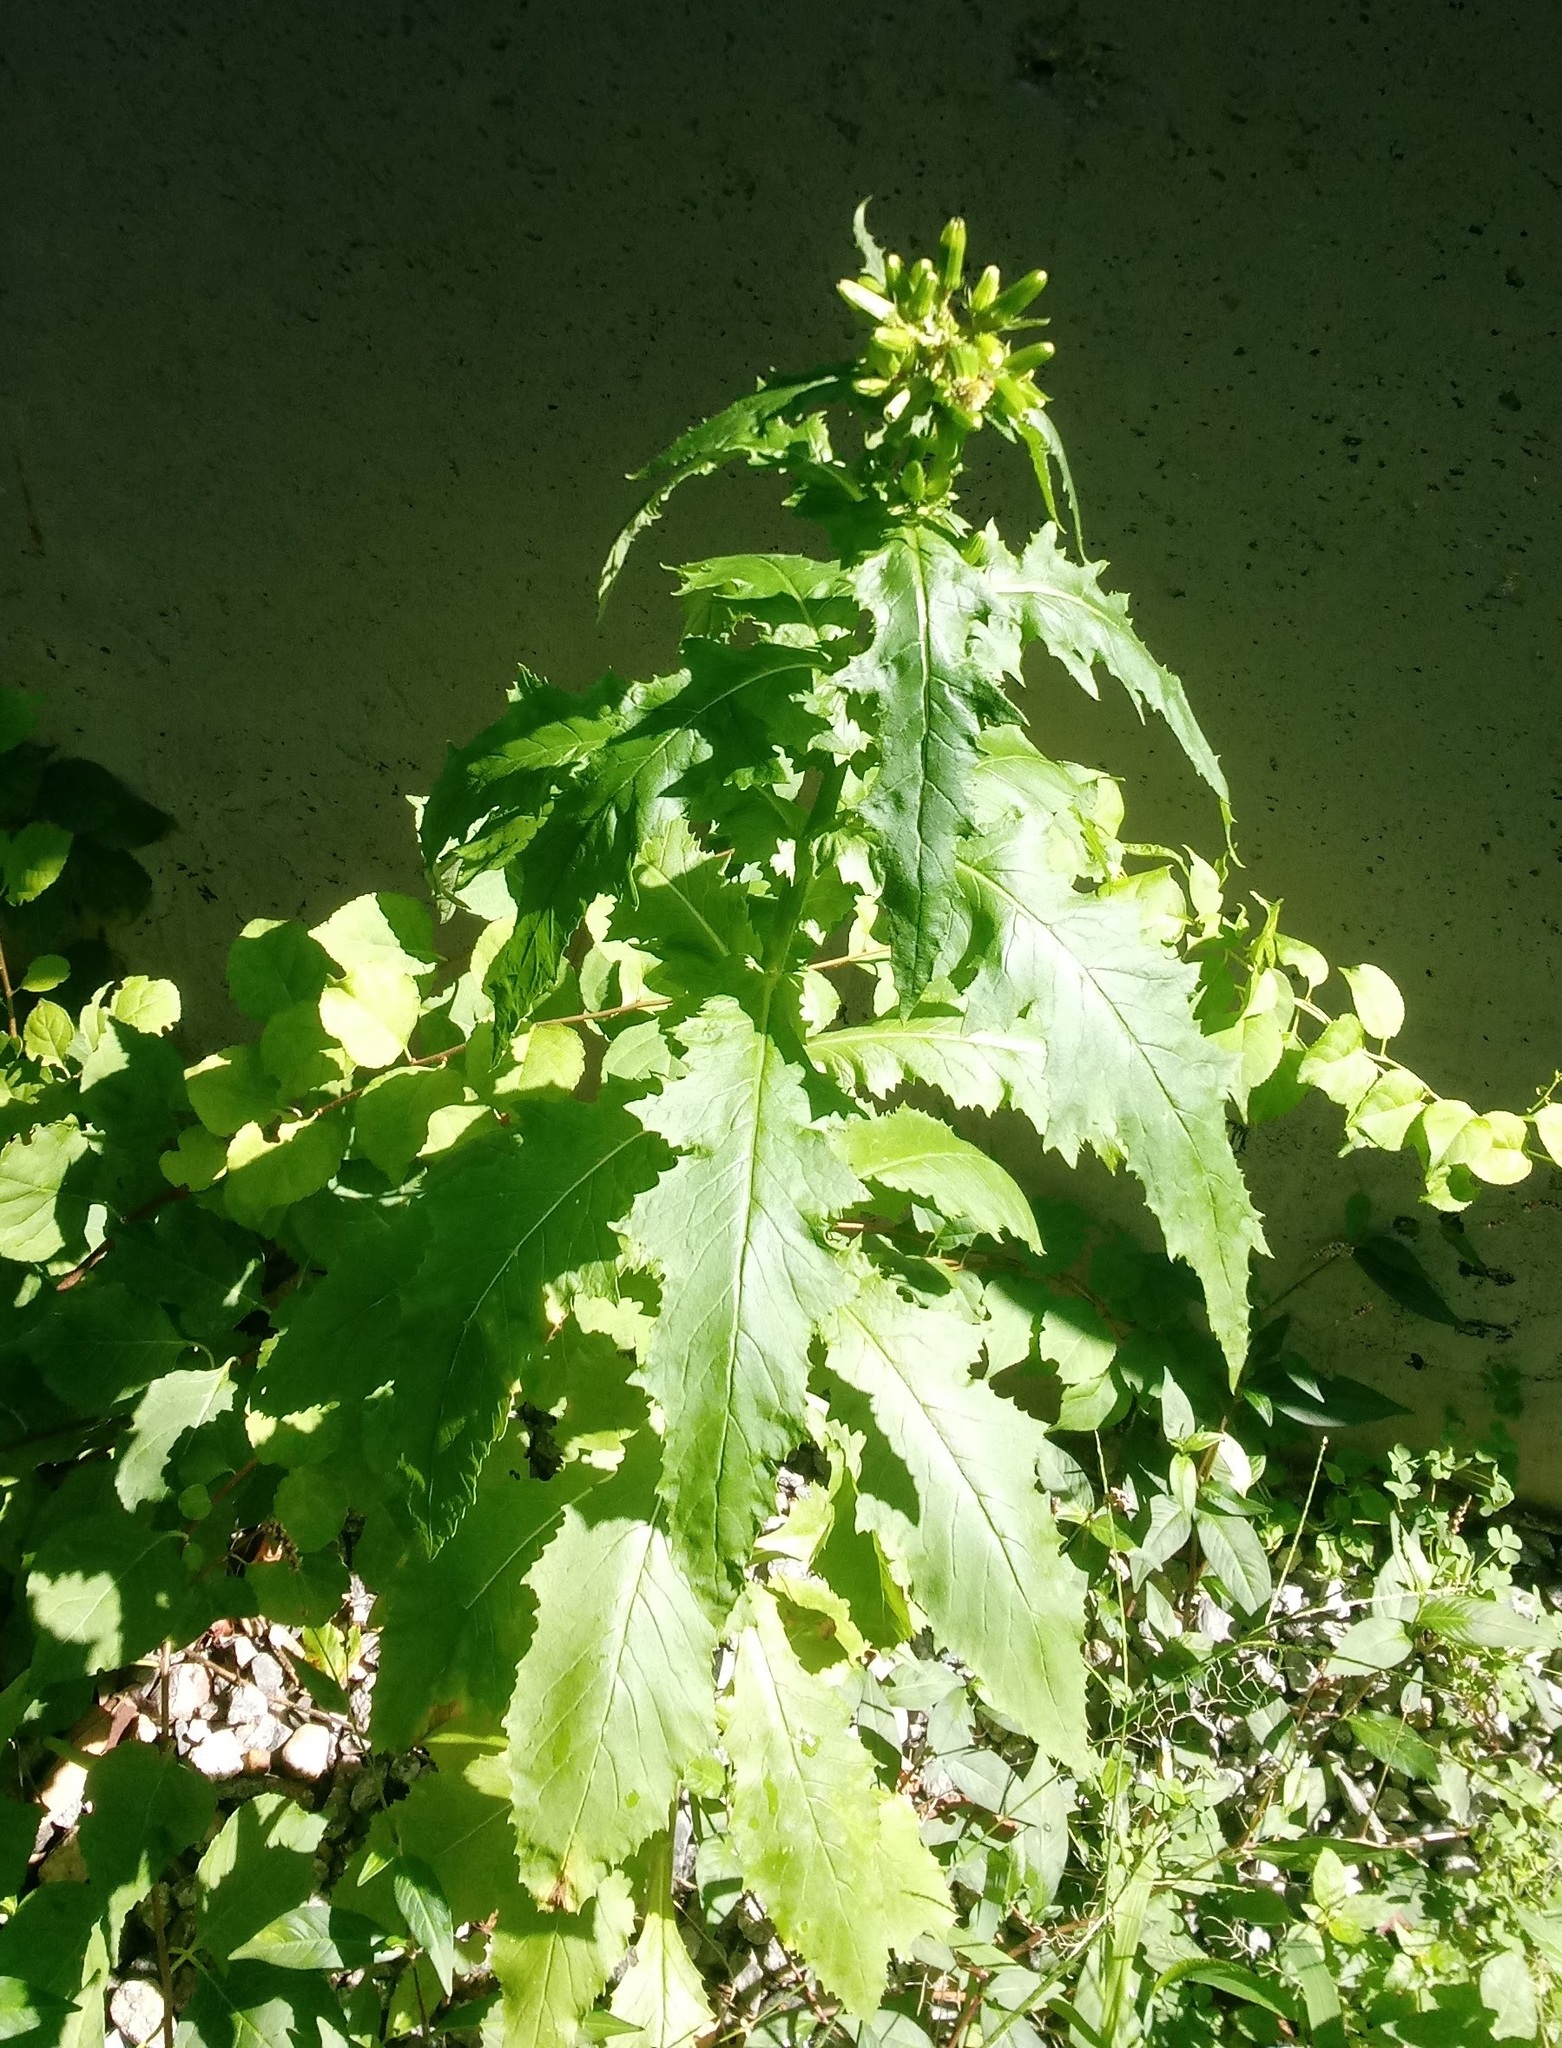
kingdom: Plantae
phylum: Tracheophyta
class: Magnoliopsida
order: Asterales
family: Asteraceae
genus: Erechtites
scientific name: Erechtites hieraciifolius
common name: American burnweed
